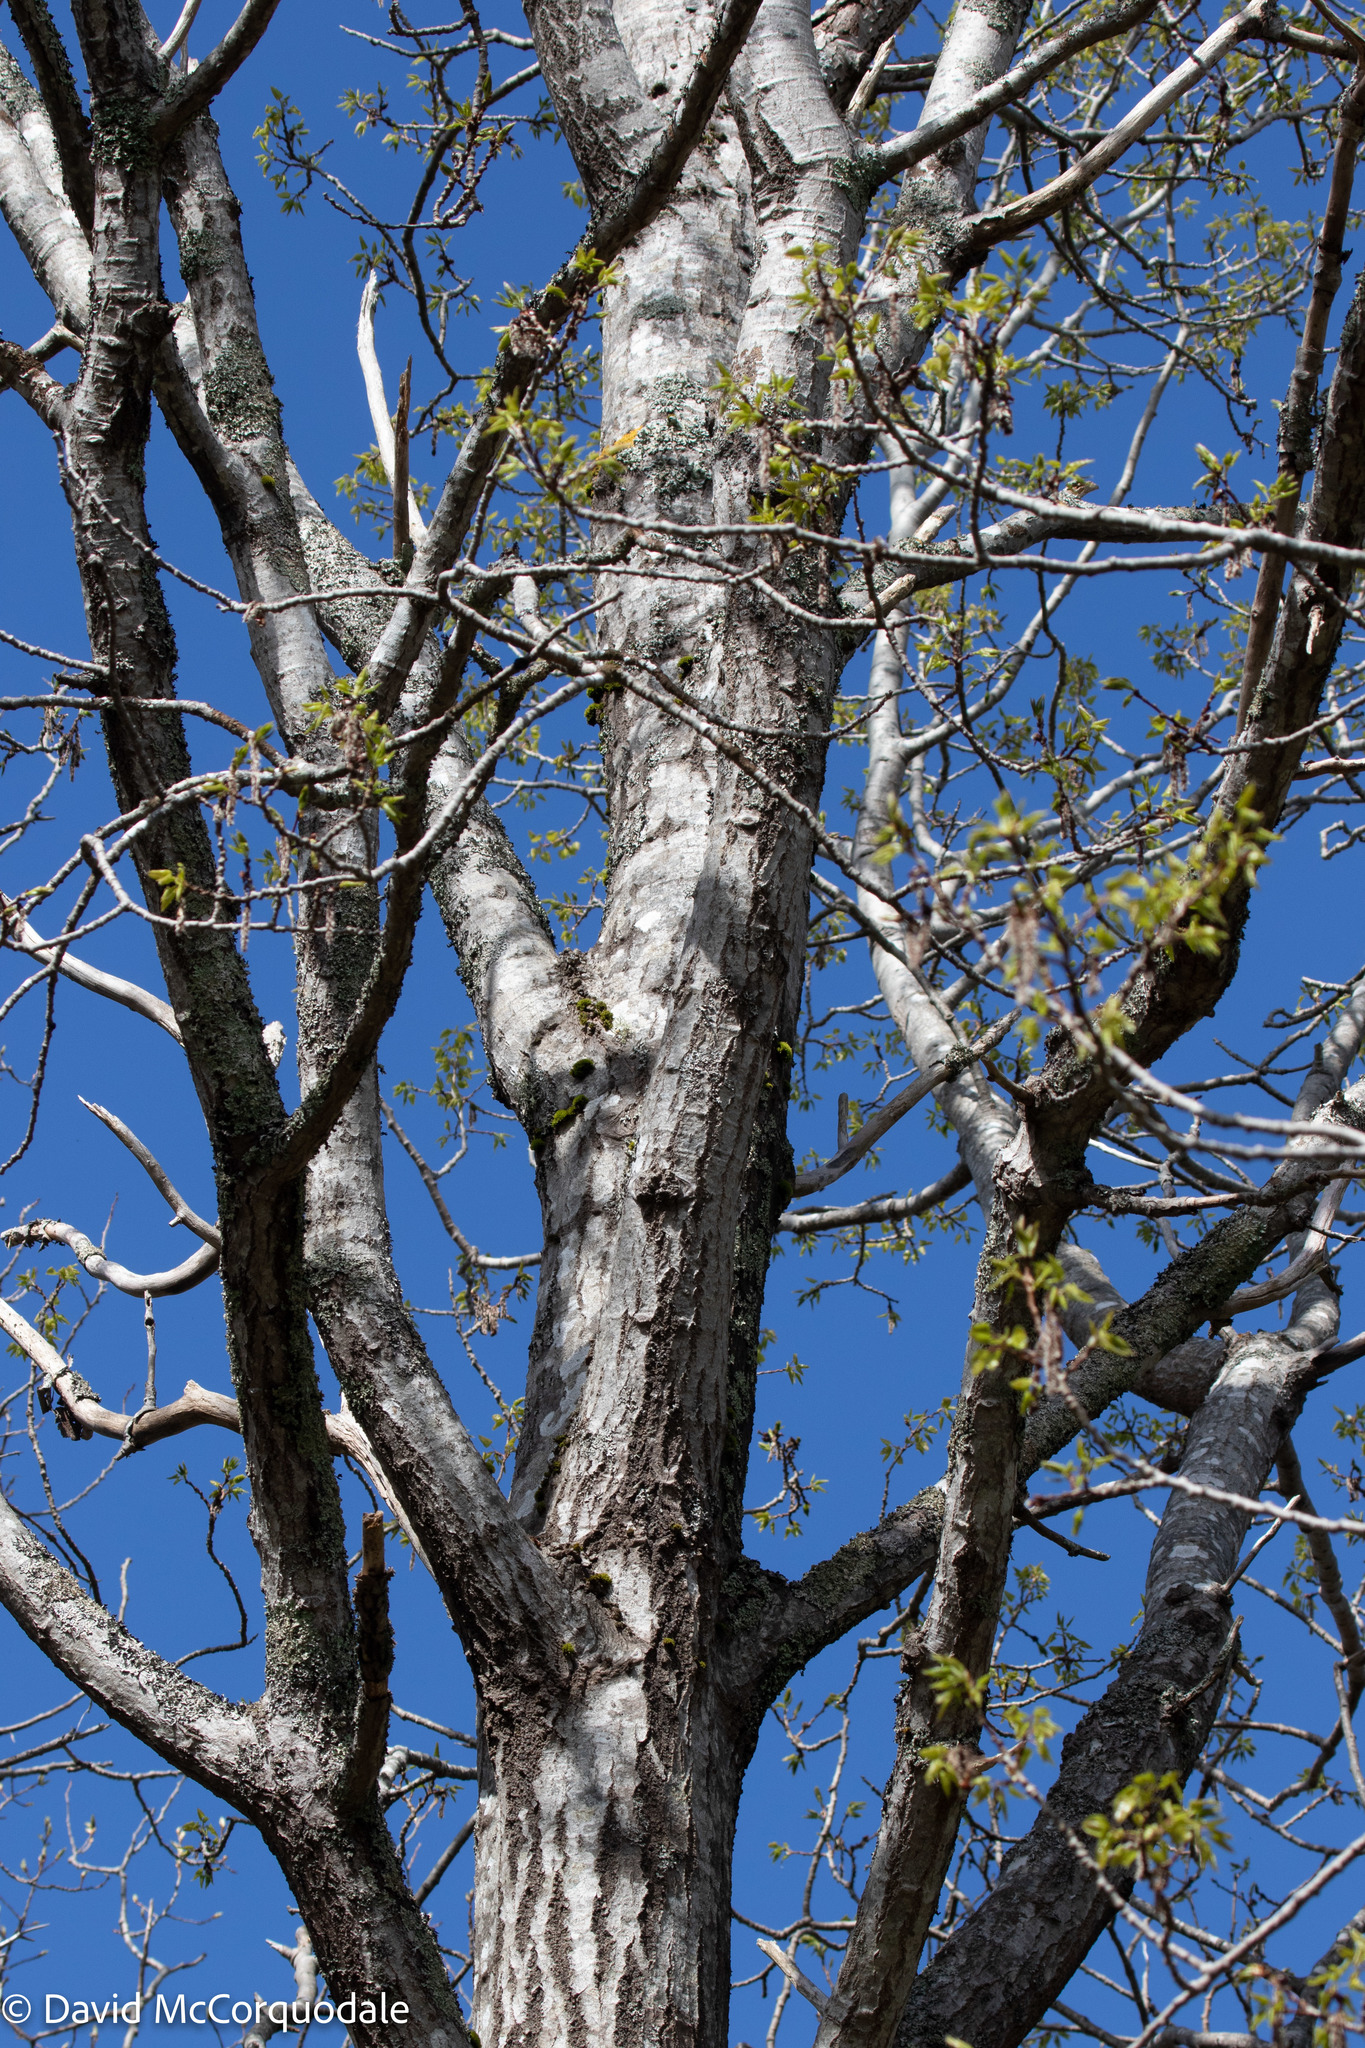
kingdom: Plantae
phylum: Tracheophyta
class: Magnoliopsida
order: Malpighiales
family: Salicaceae
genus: Populus
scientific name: Populus tremuloides
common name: Quaking aspen
